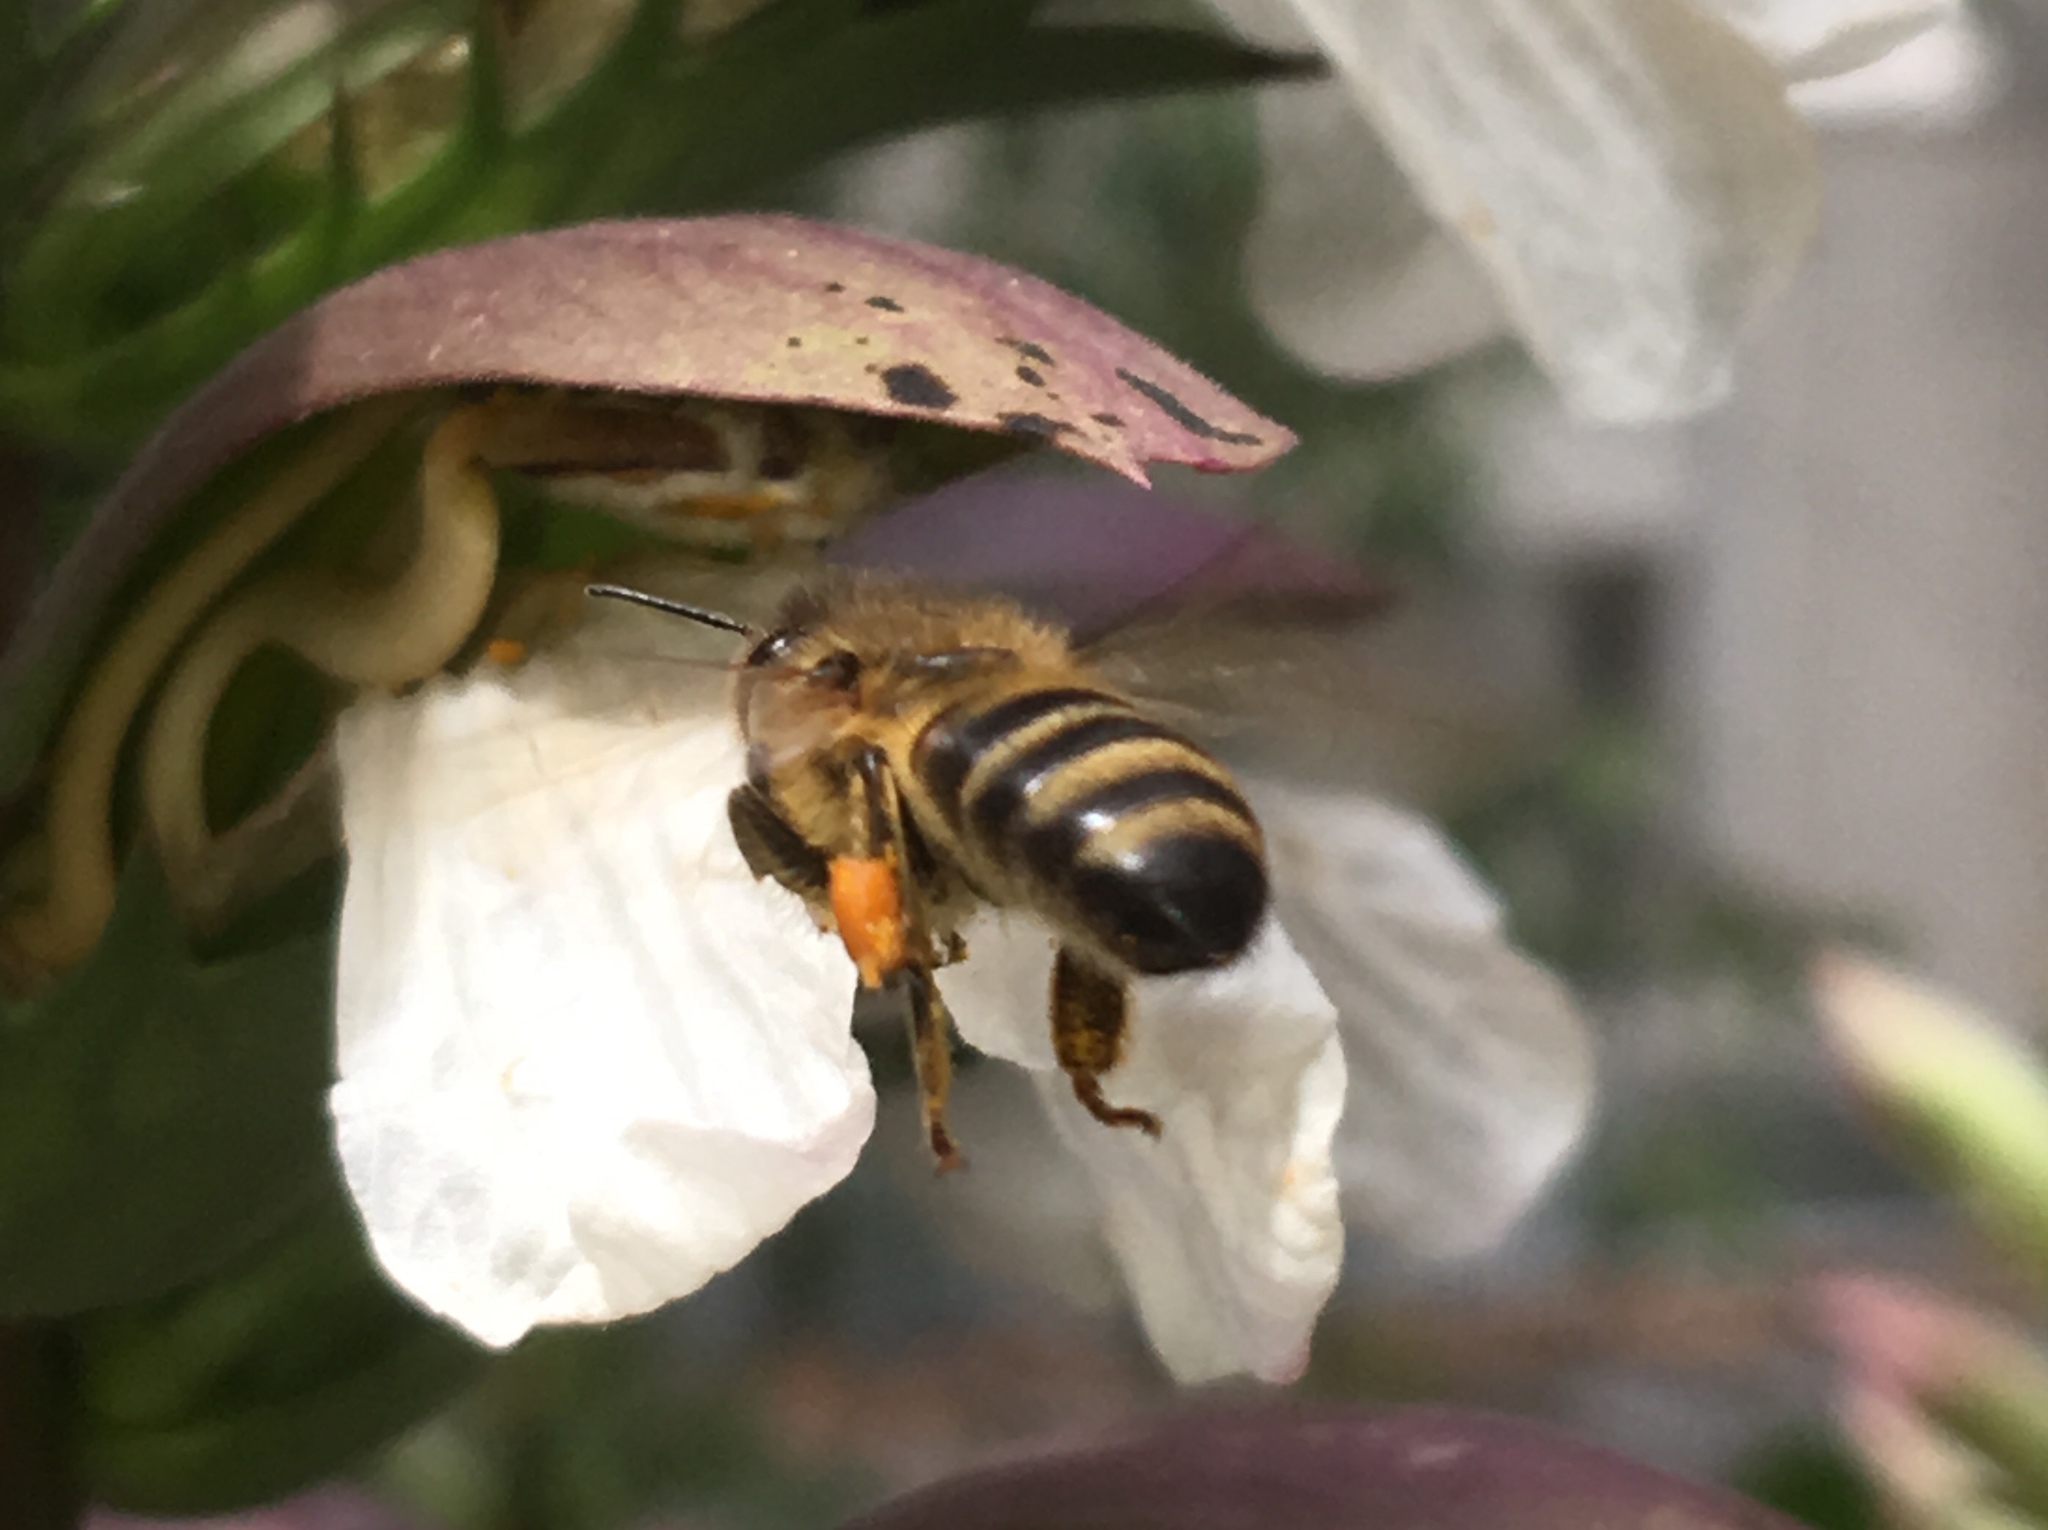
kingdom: Animalia
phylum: Arthropoda
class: Insecta
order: Hymenoptera
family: Apidae
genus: Apis
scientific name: Apis mellifera
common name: Honey bee
